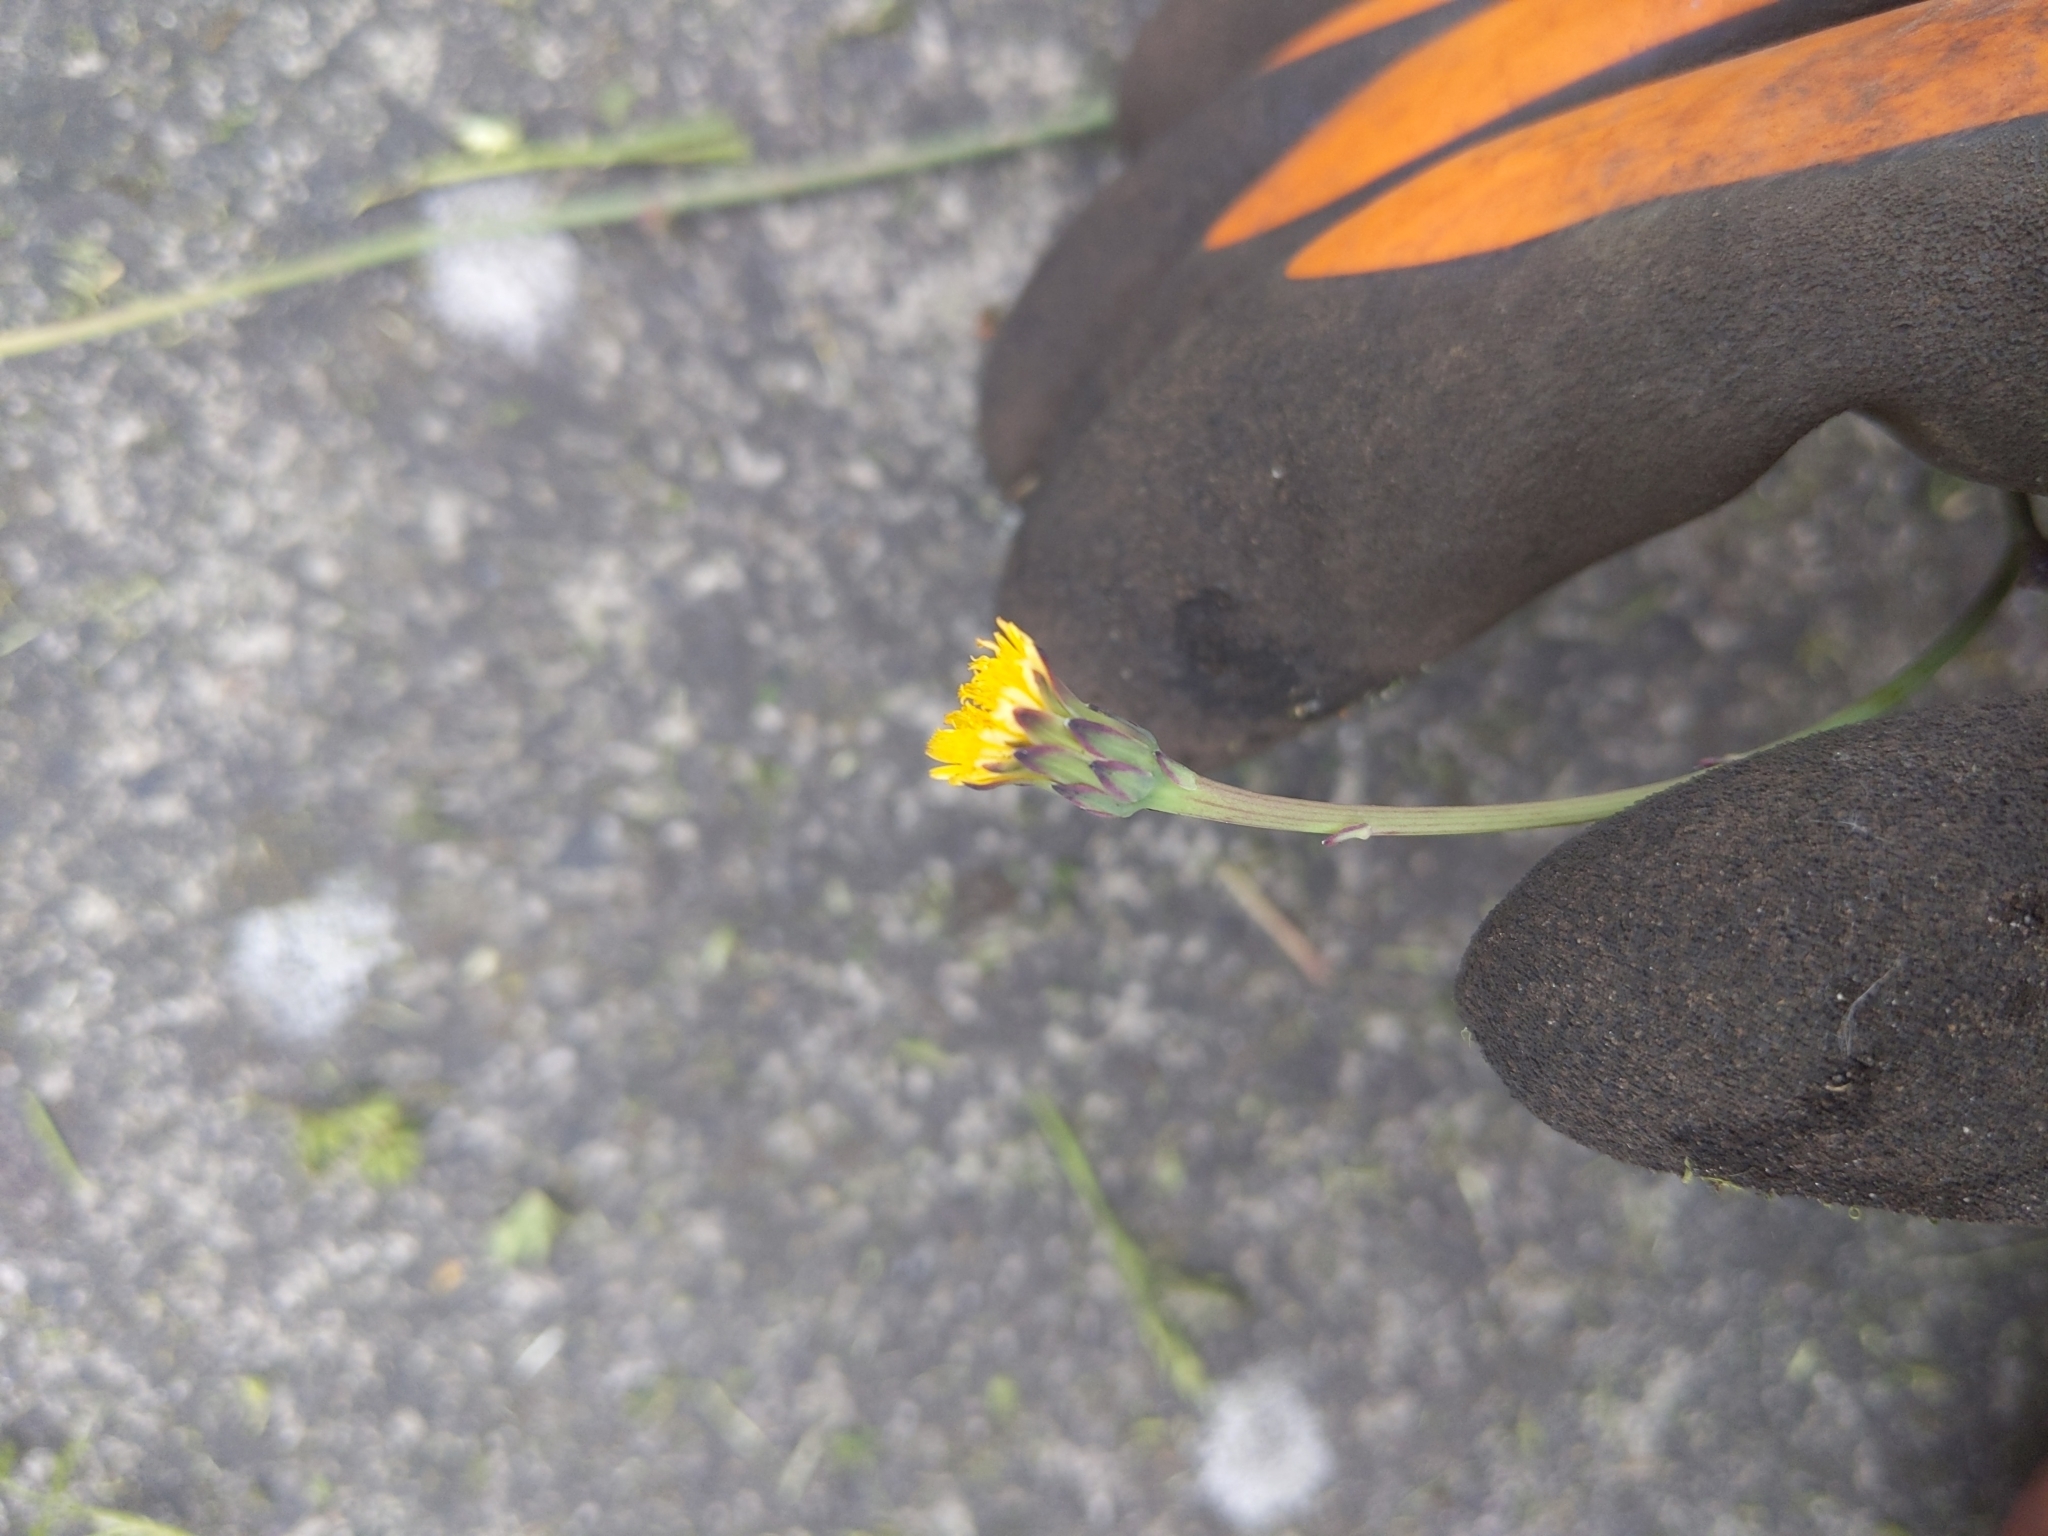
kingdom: Plantae
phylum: Tracheophyta
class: Magnoliopsida
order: Asterales
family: Asteraceae
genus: Hypochaeris
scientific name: Hypochaeris glabra
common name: Smooth catsear
